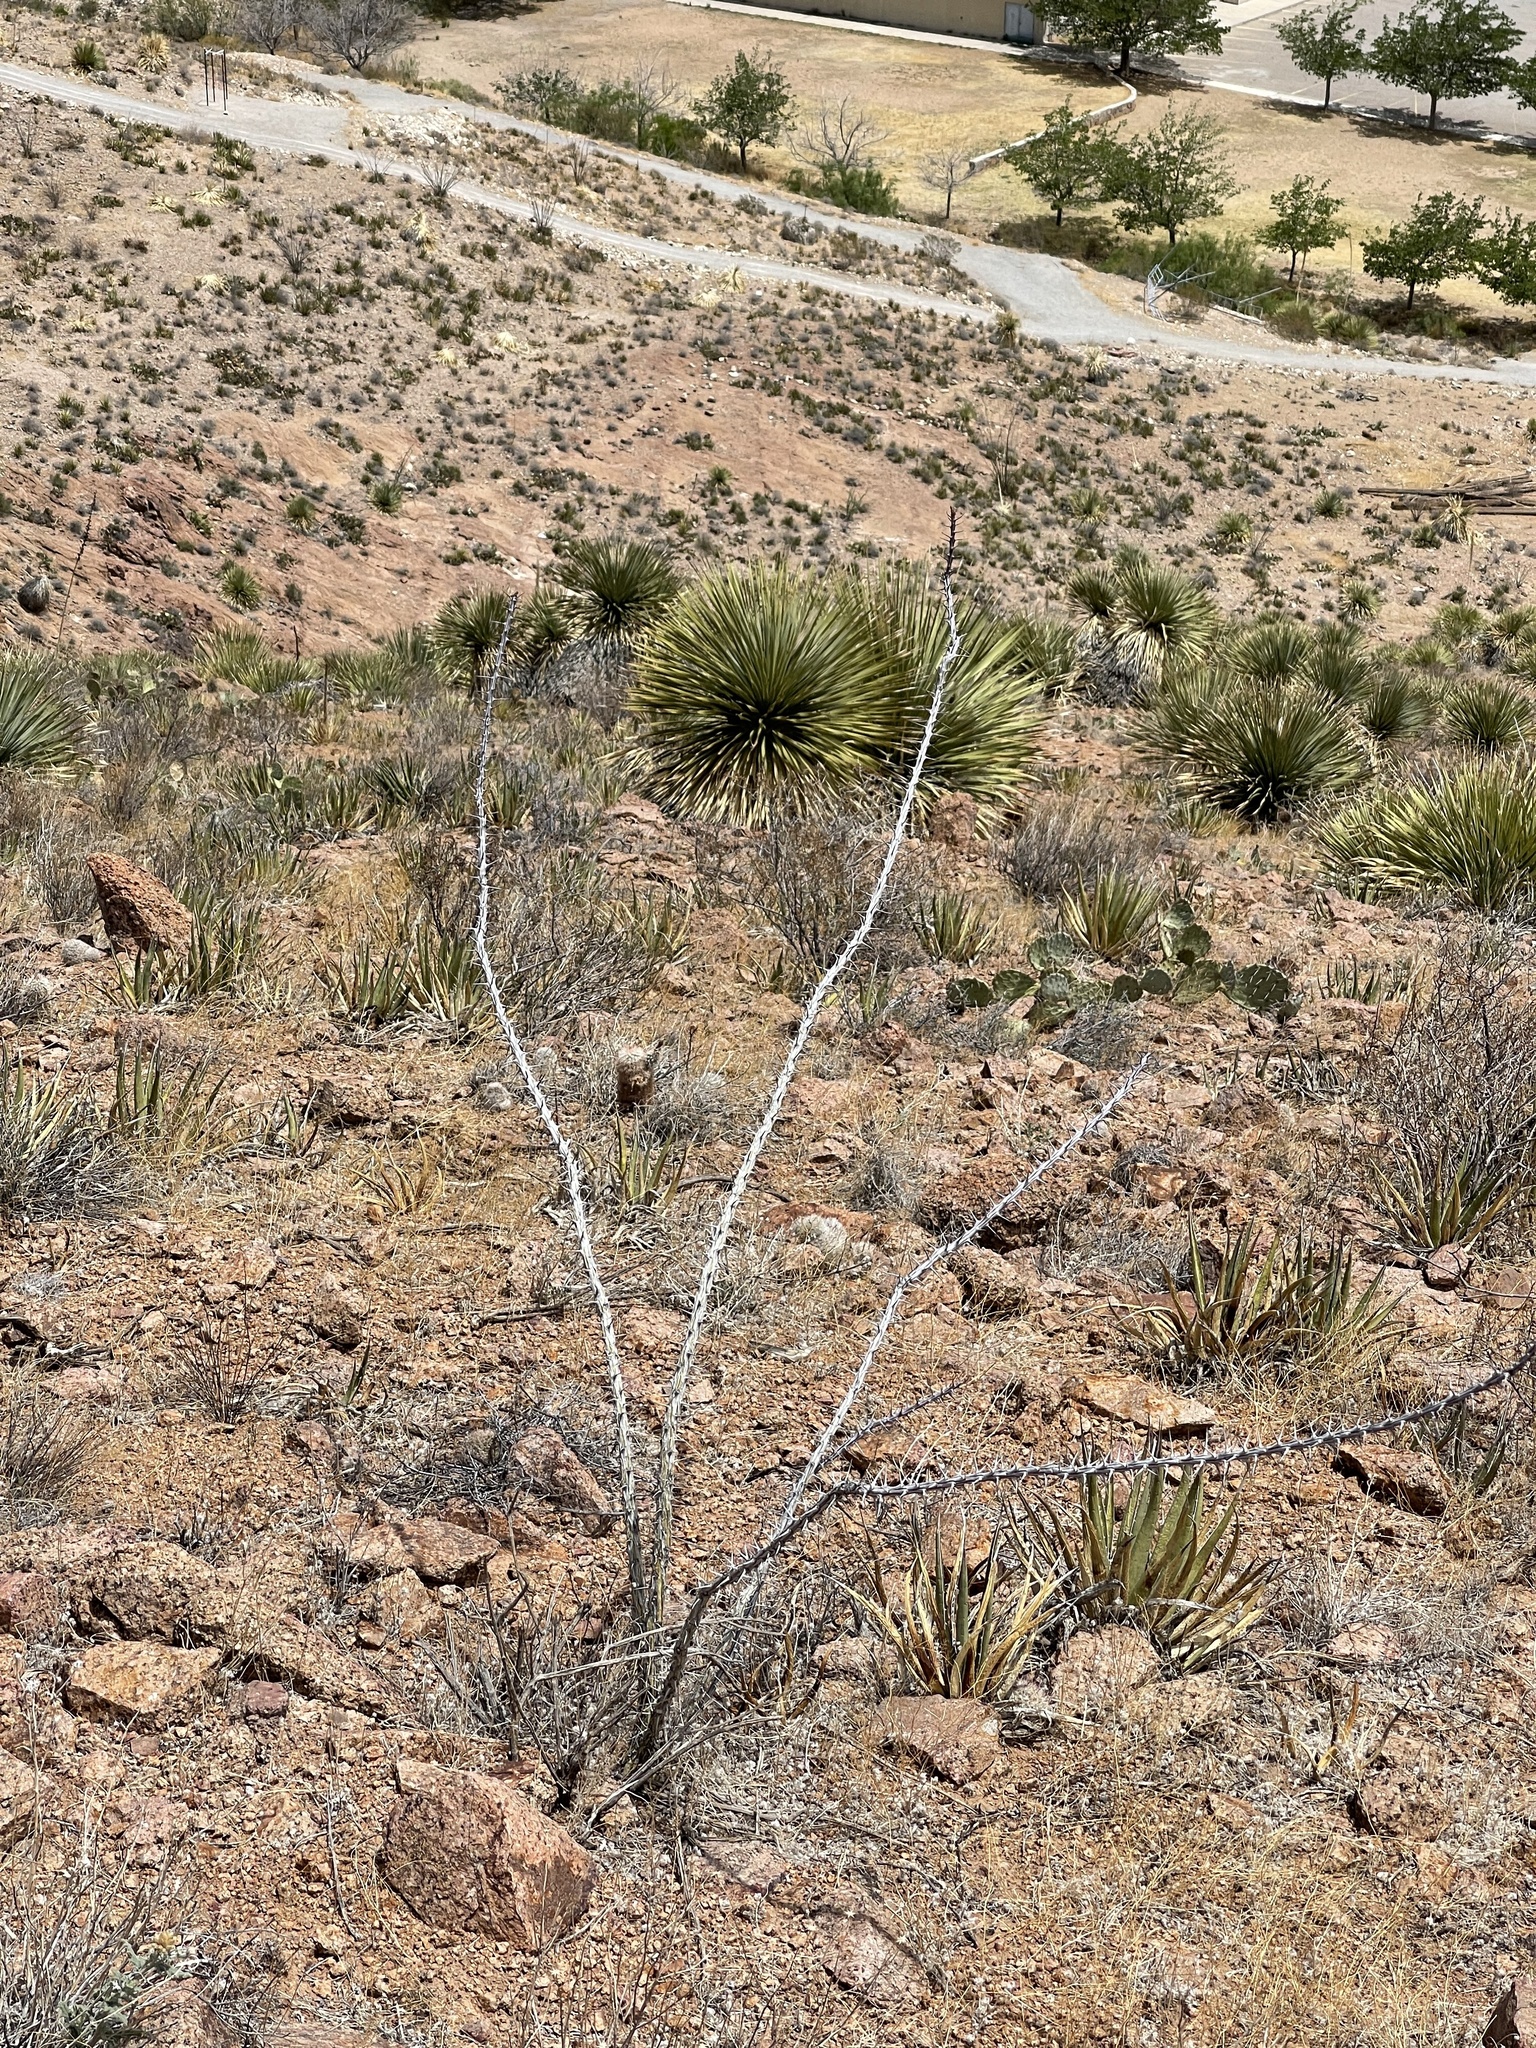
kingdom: Plantae
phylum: Tracheophyta
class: Magnoliopsida
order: Ericales
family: Fouquieriaceae
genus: Fouquieria
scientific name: Fouquieria splendens
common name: Vine-cactus
